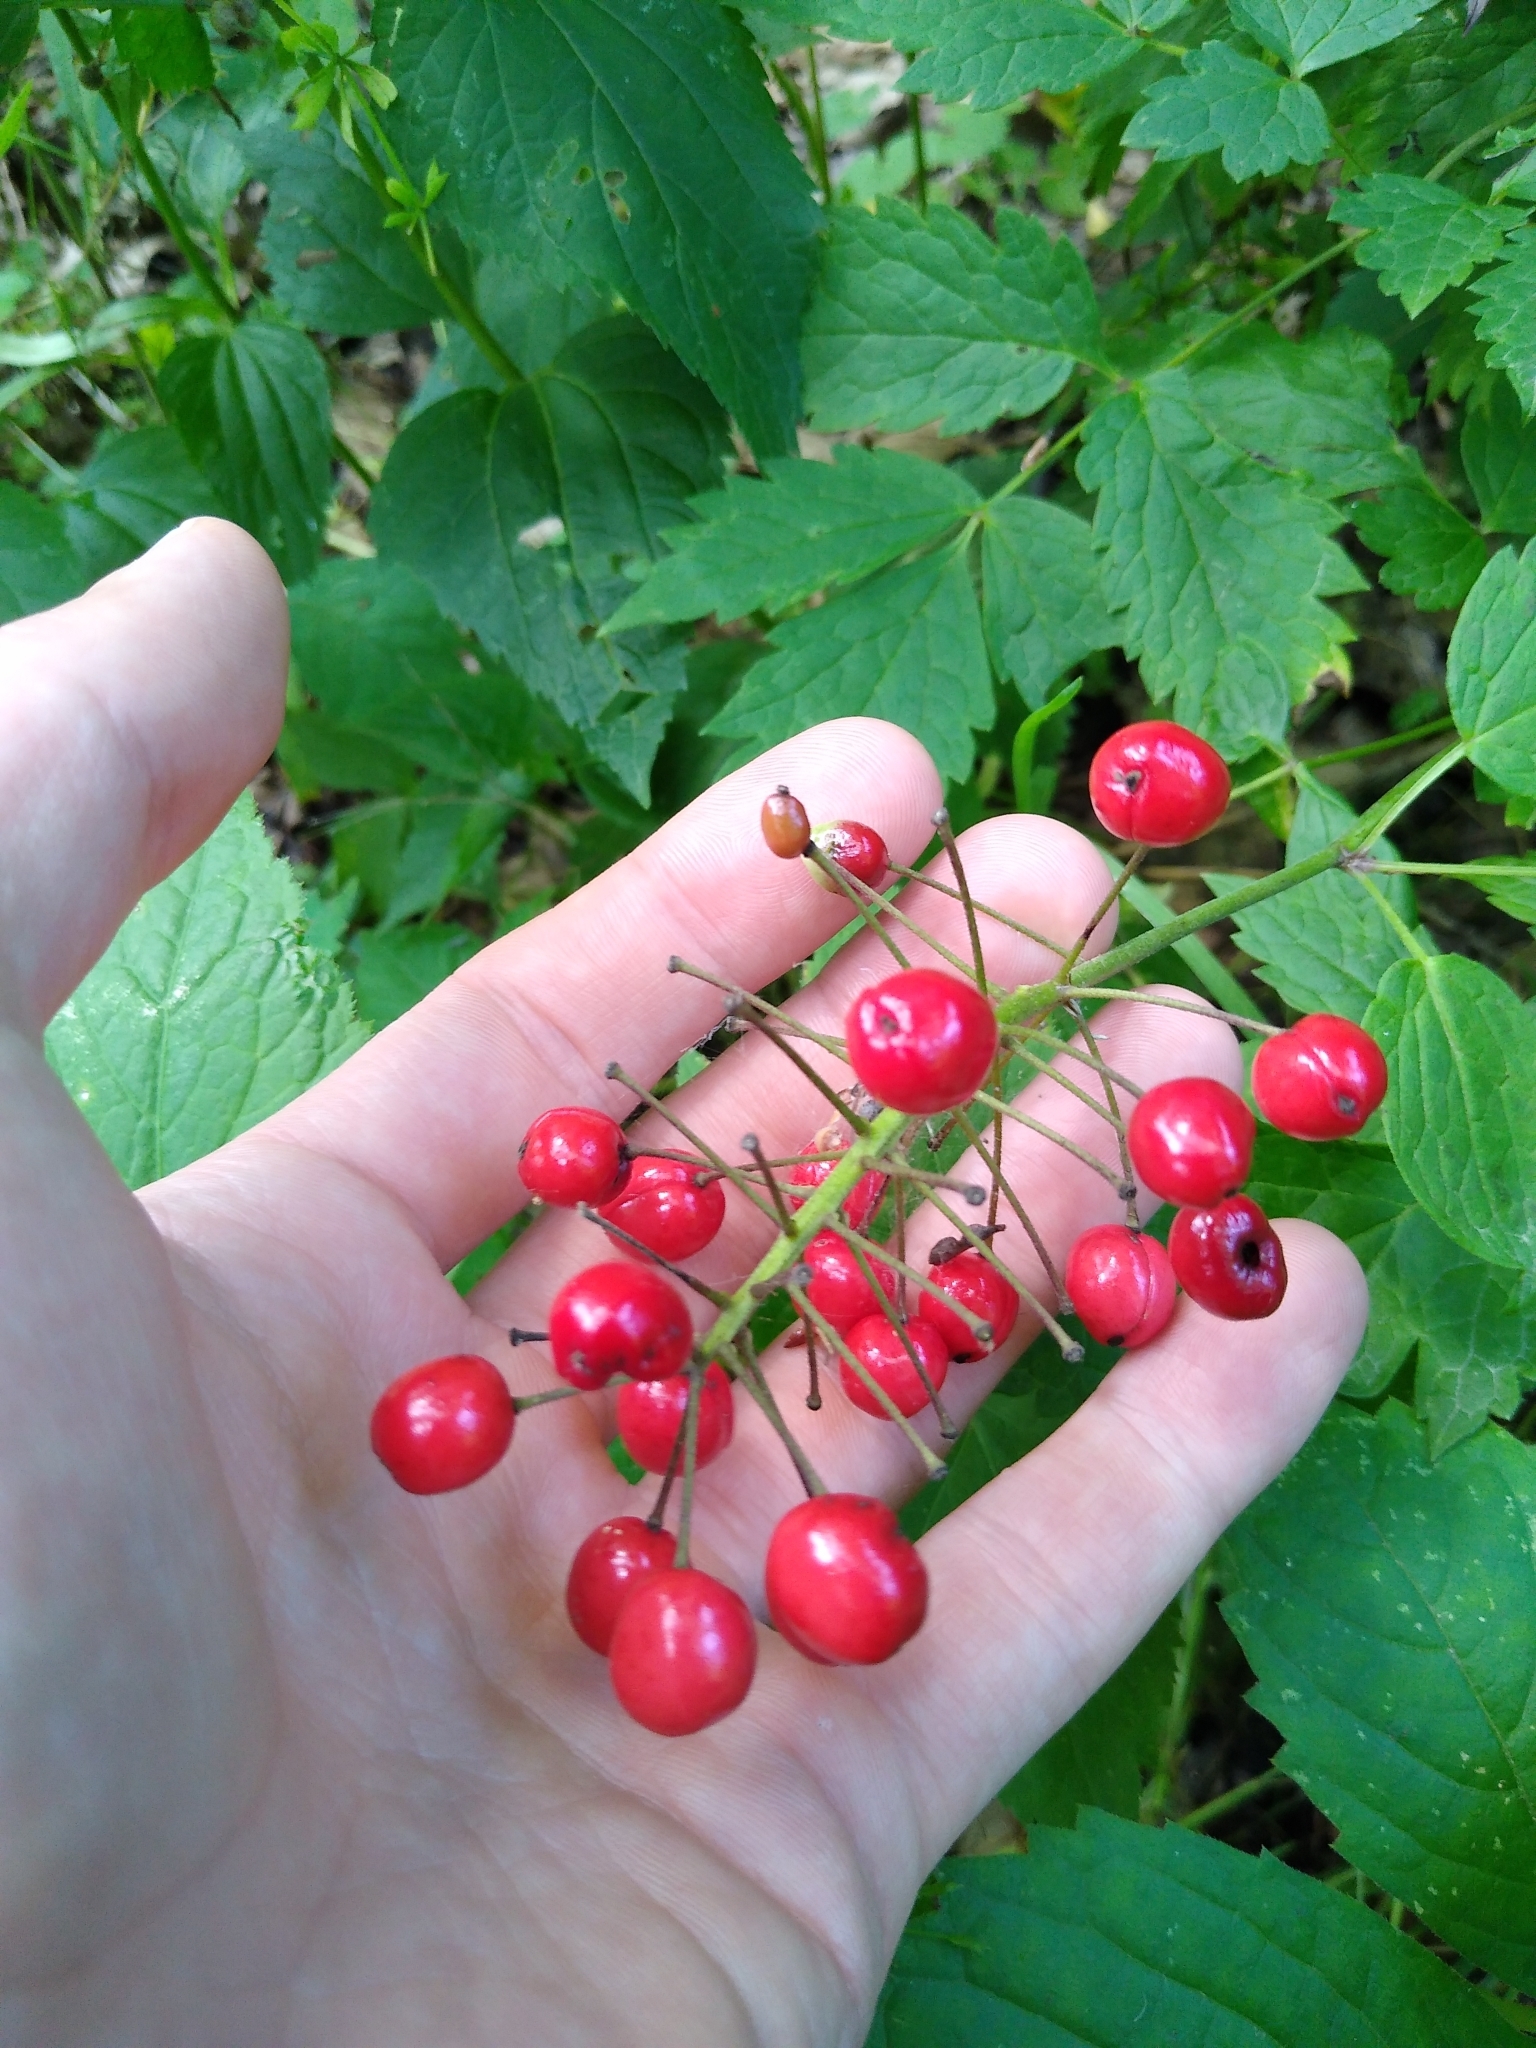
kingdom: Plantae
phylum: Tracheophyta
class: Magnoliopsida
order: Ranunculales
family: Ranunculaceae
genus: Actaea
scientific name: Actaea rubra
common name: Red baneberry
